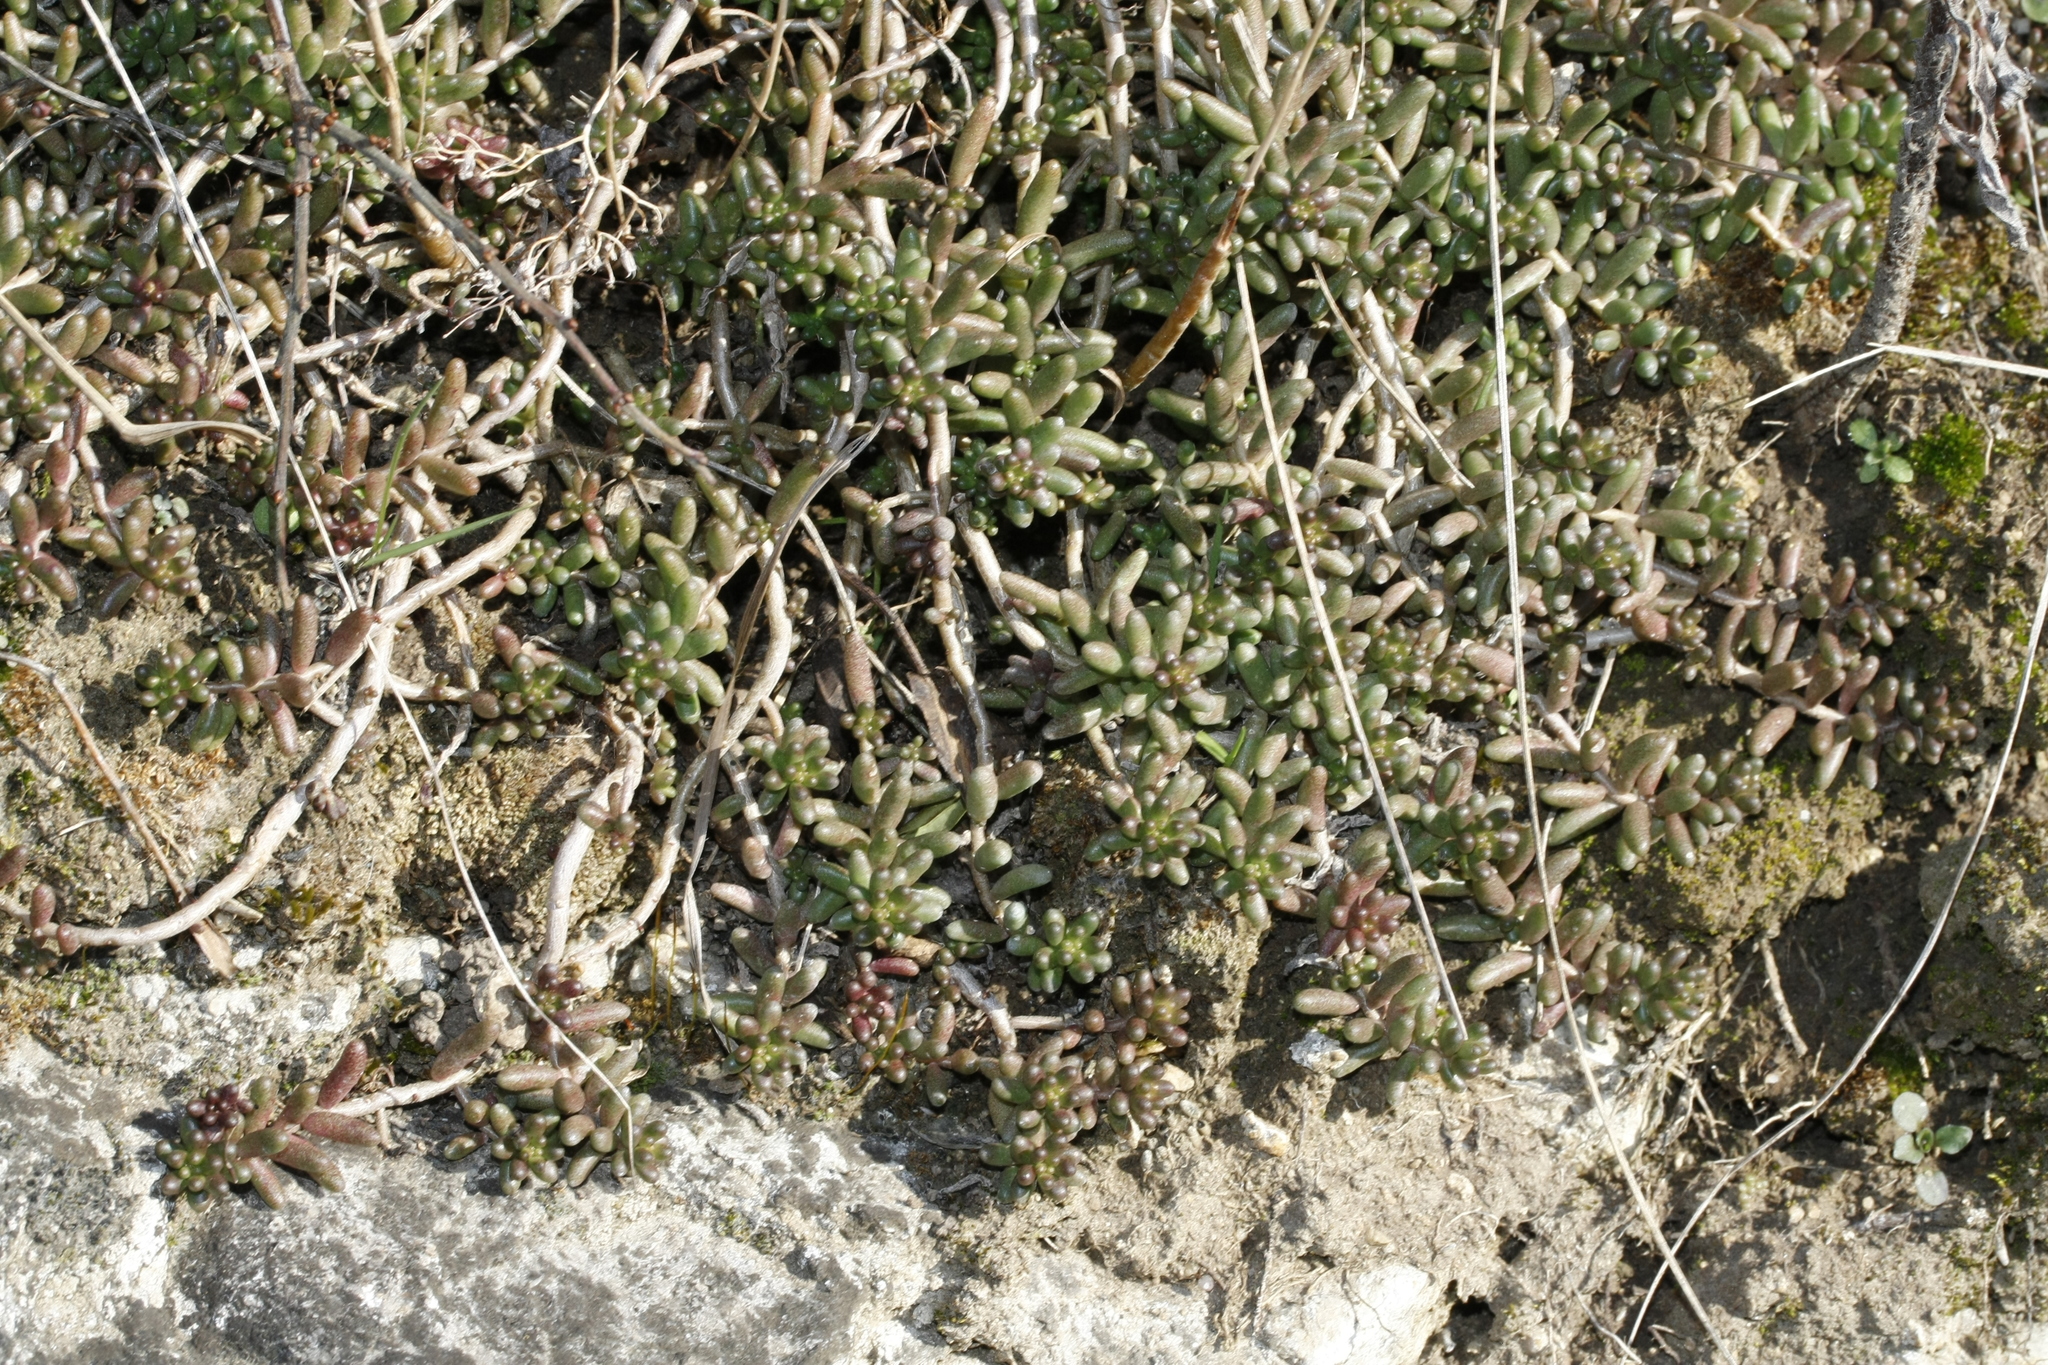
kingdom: Plantae
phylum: Tracheophyta
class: Magnoliopsida
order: Saxifragales
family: Crassulaceae
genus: Sedum
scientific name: Sedum album
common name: White stonecrop
